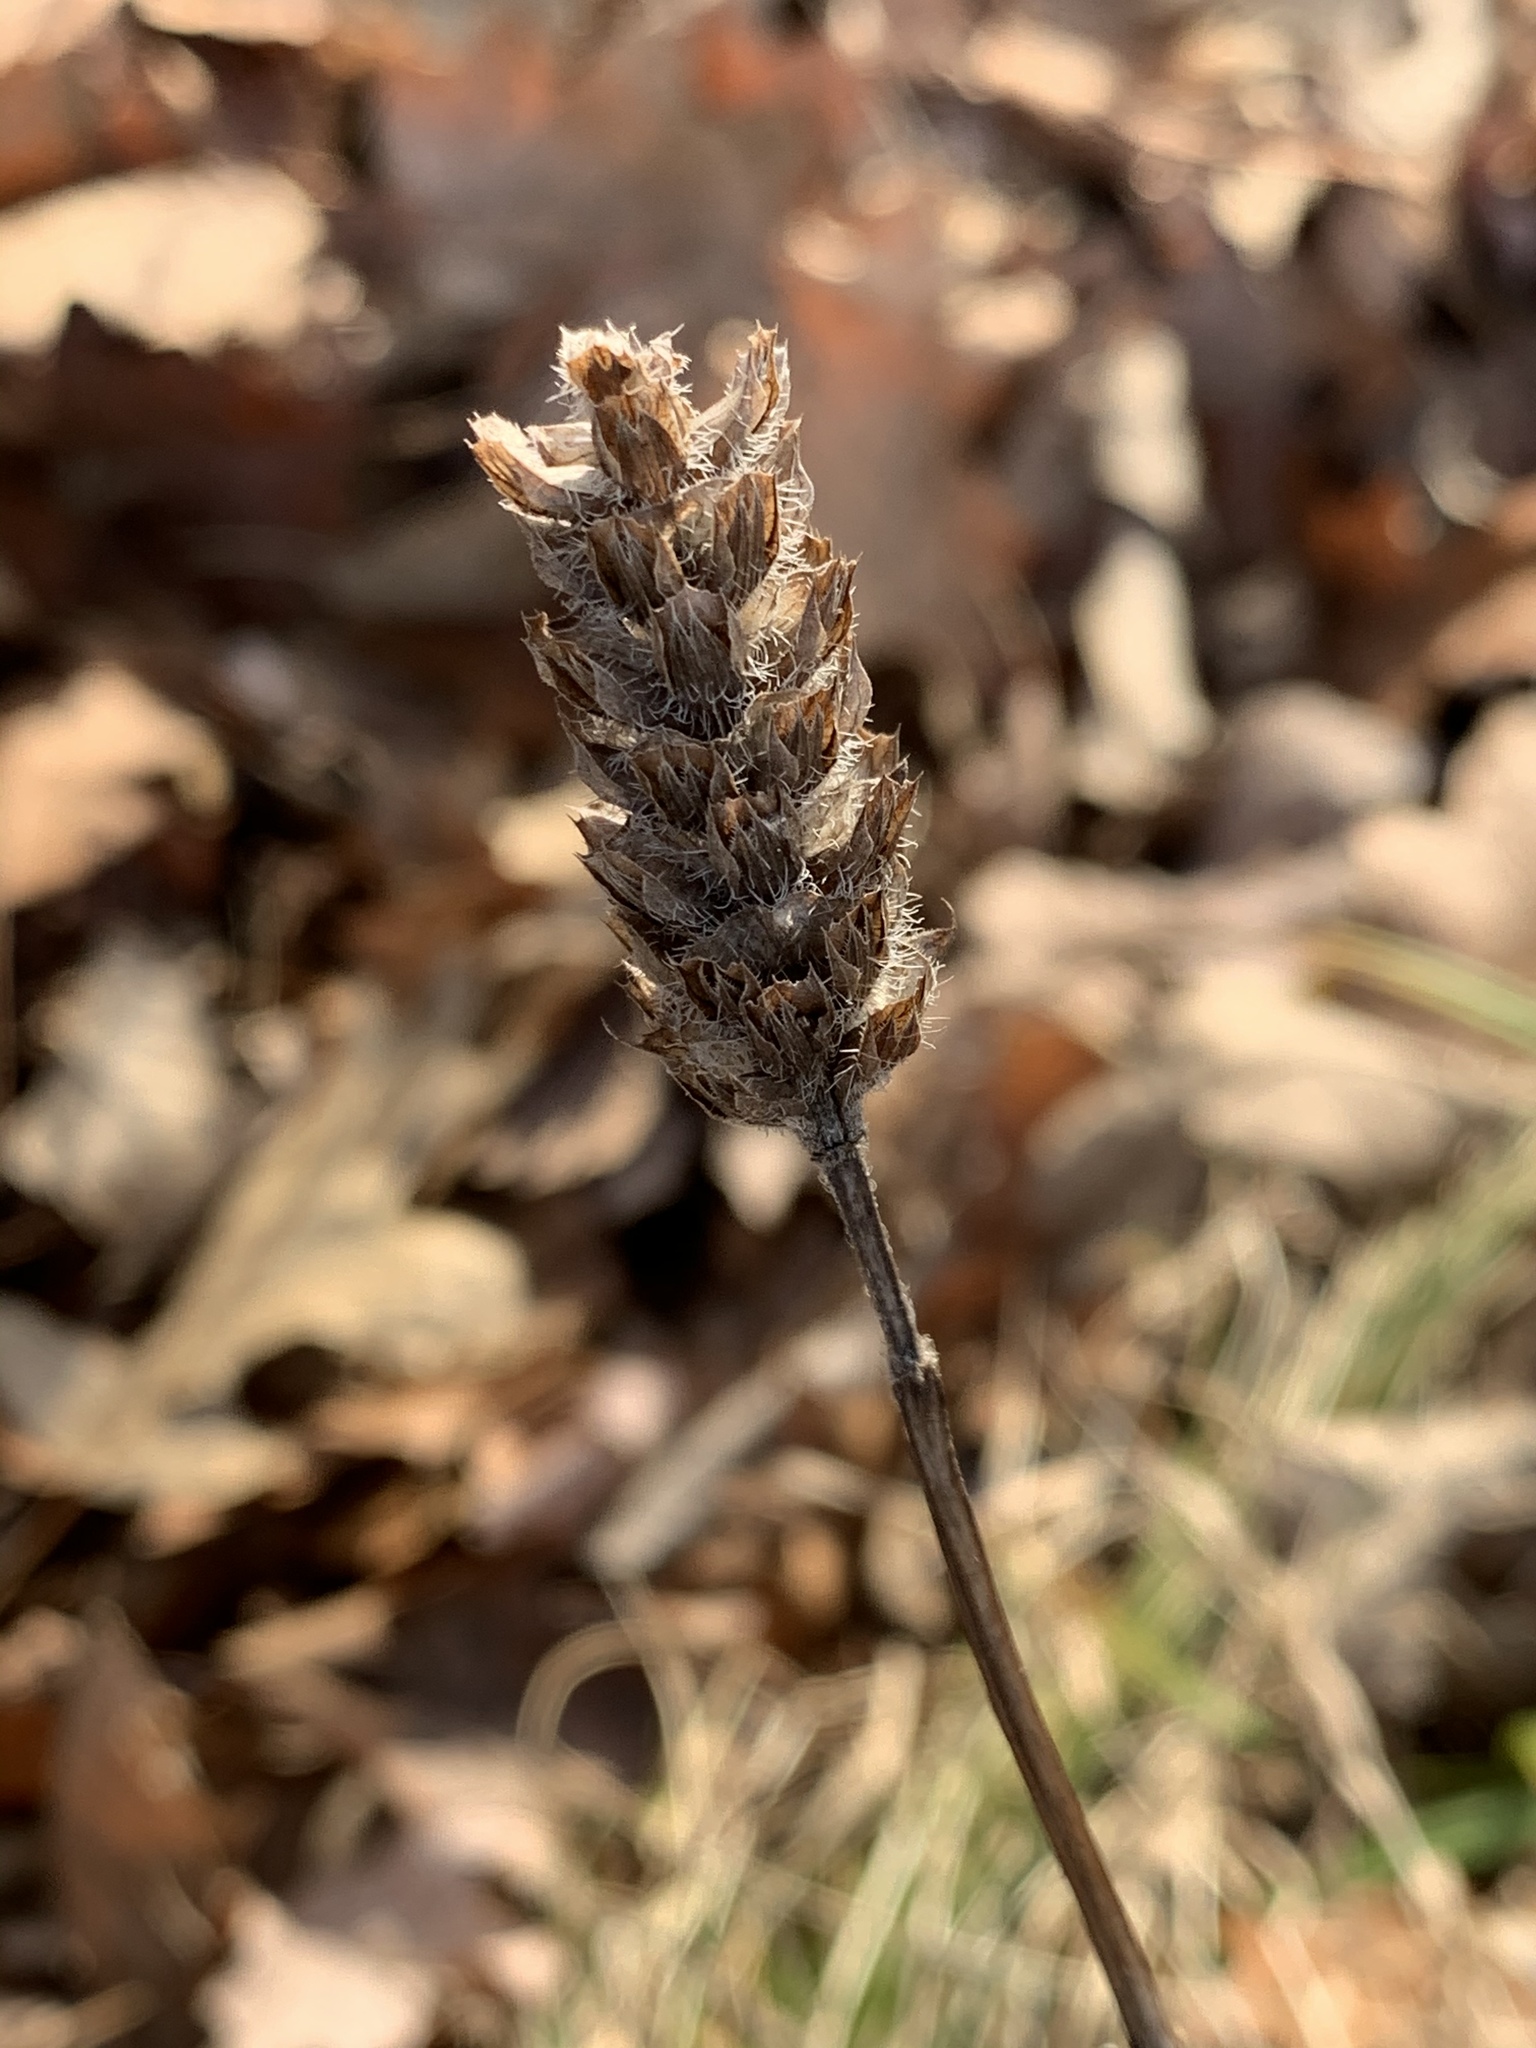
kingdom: Plantae
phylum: Tracheophyta
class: Magnoliopsida
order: Lamiales
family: Lamiaceae
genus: Prunella
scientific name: Prunella vulgaris
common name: Heal-all
